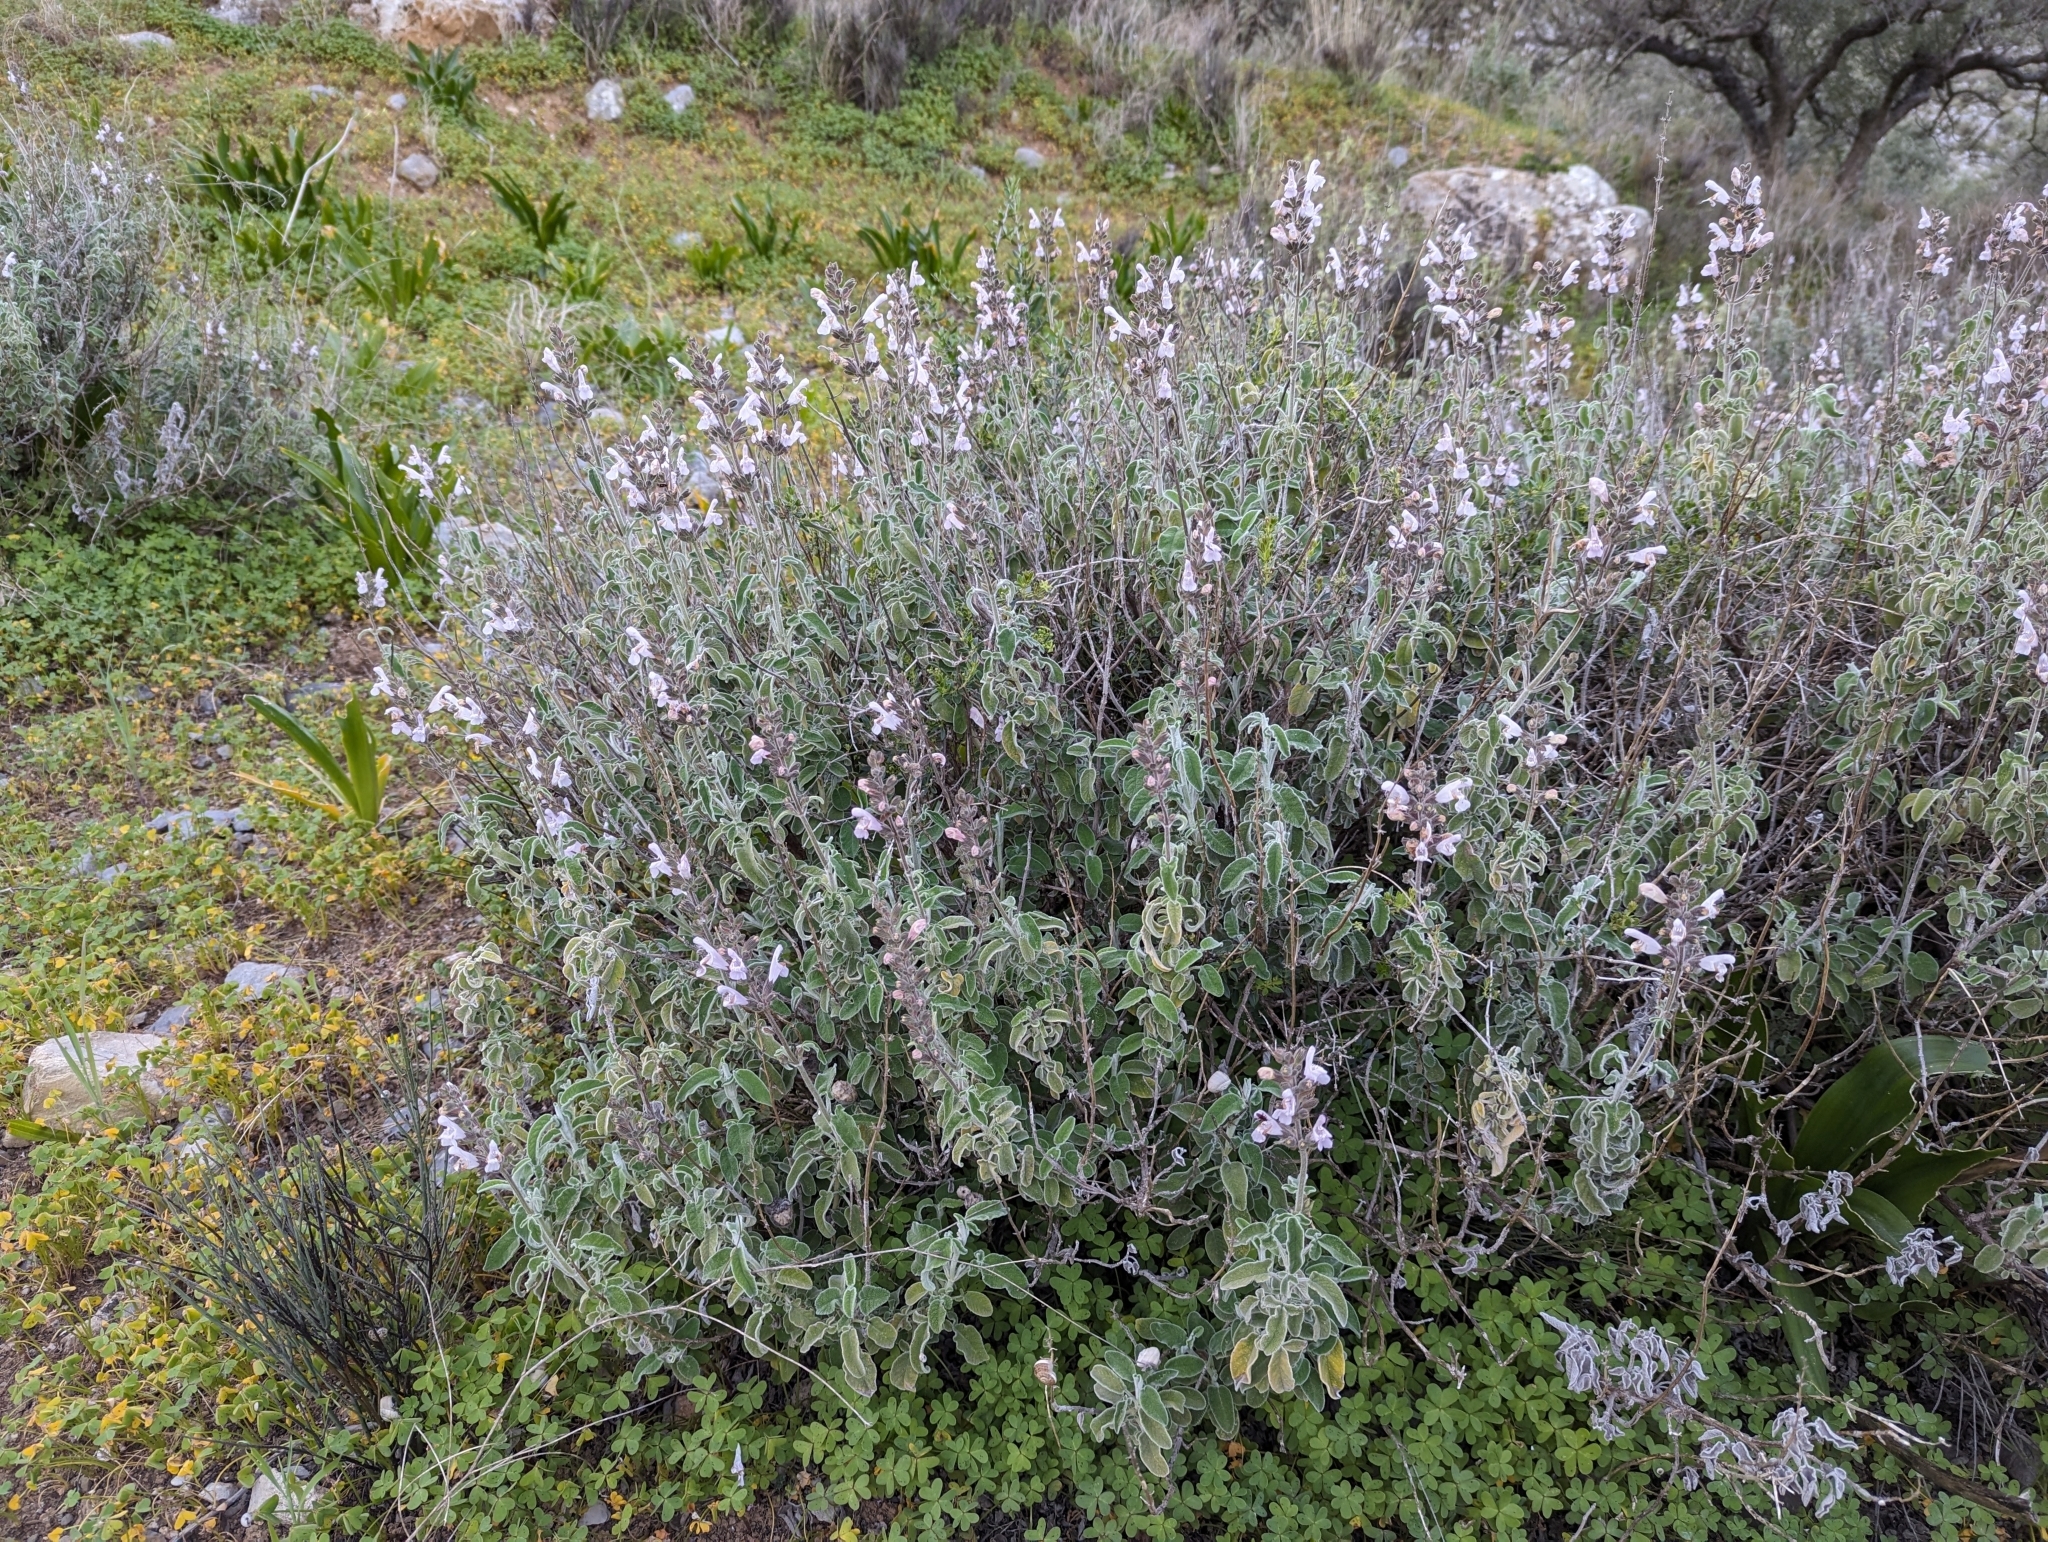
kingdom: Plantae
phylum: Tracheophyta
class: Magnoliopsida
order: Lamiales
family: Lamiaceae
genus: Salvia
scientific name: Salvia fruticosa
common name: Greek sage
